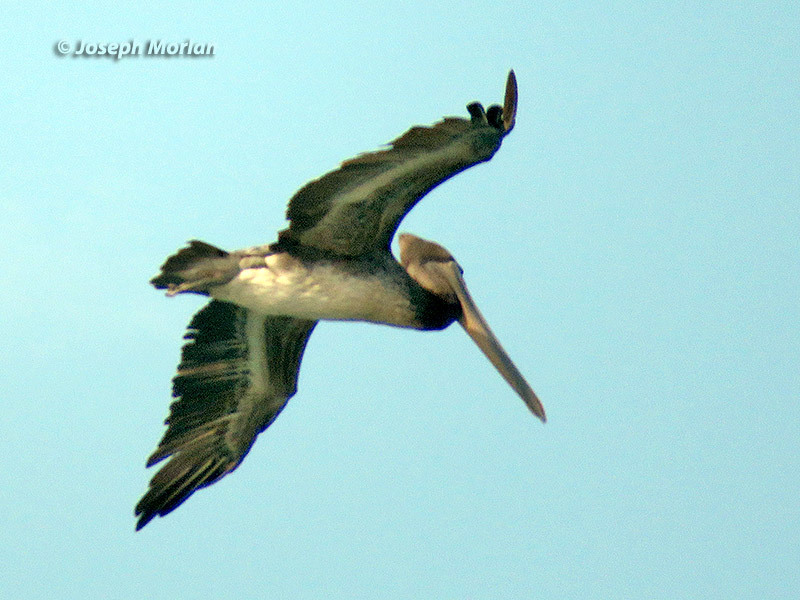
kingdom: Animalia
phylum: Chordata
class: Aves
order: Pelecaniformes
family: Pelecanidae
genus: Pelecanus
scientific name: Pelecanus occidentalis
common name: Brown pelican
